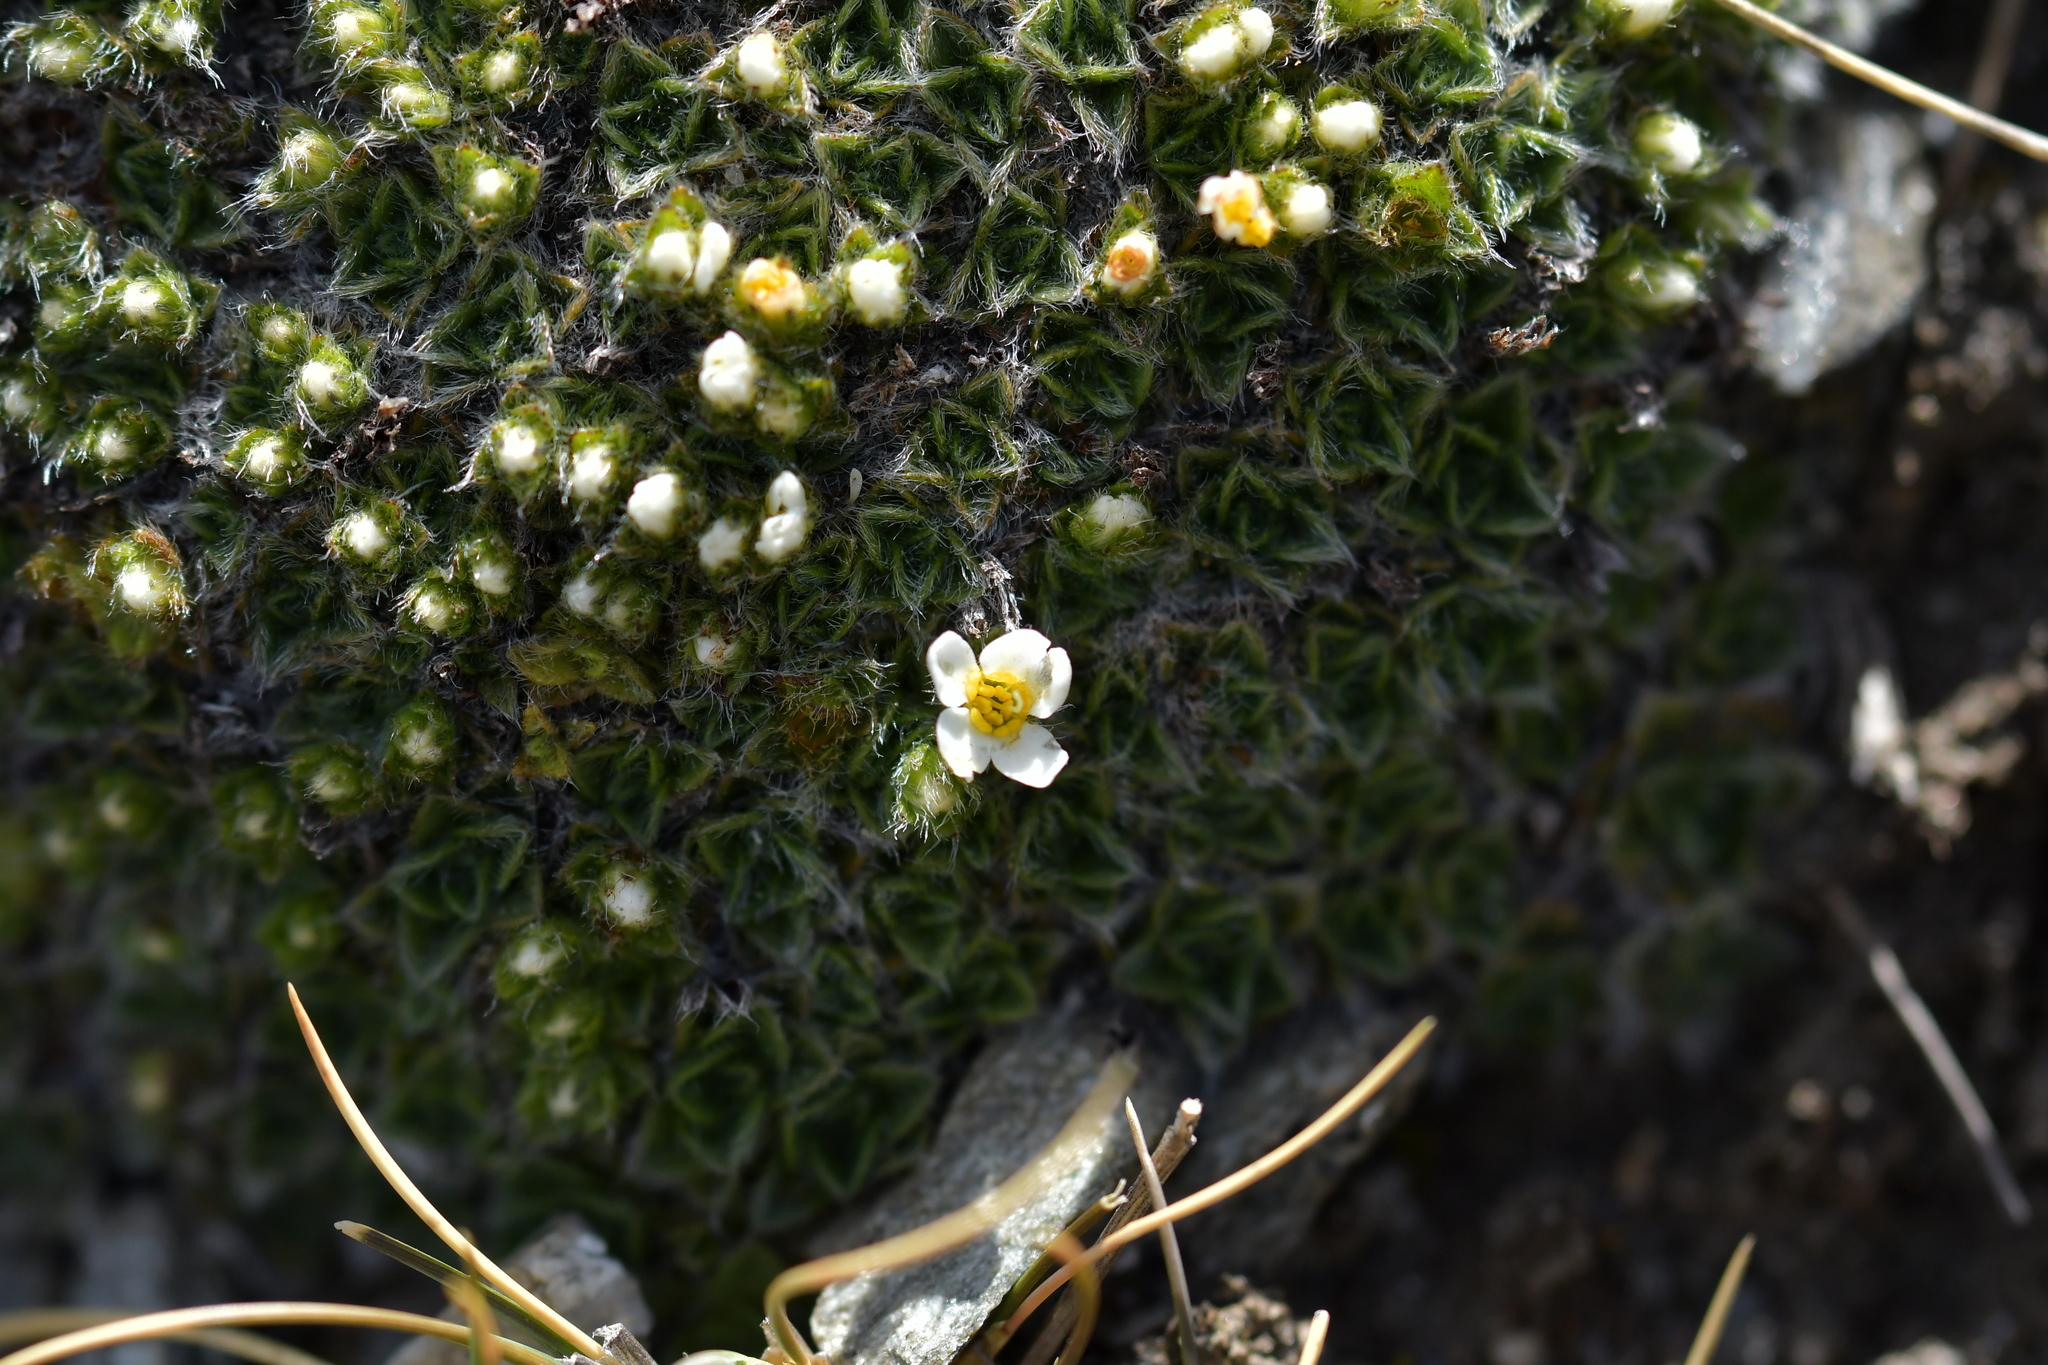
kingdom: Plantae
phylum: Tracheophyta
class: Magnoliopsida
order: Boraginales
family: Boraginaceae
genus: Myosotis
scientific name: Myosotis pulvinaris
